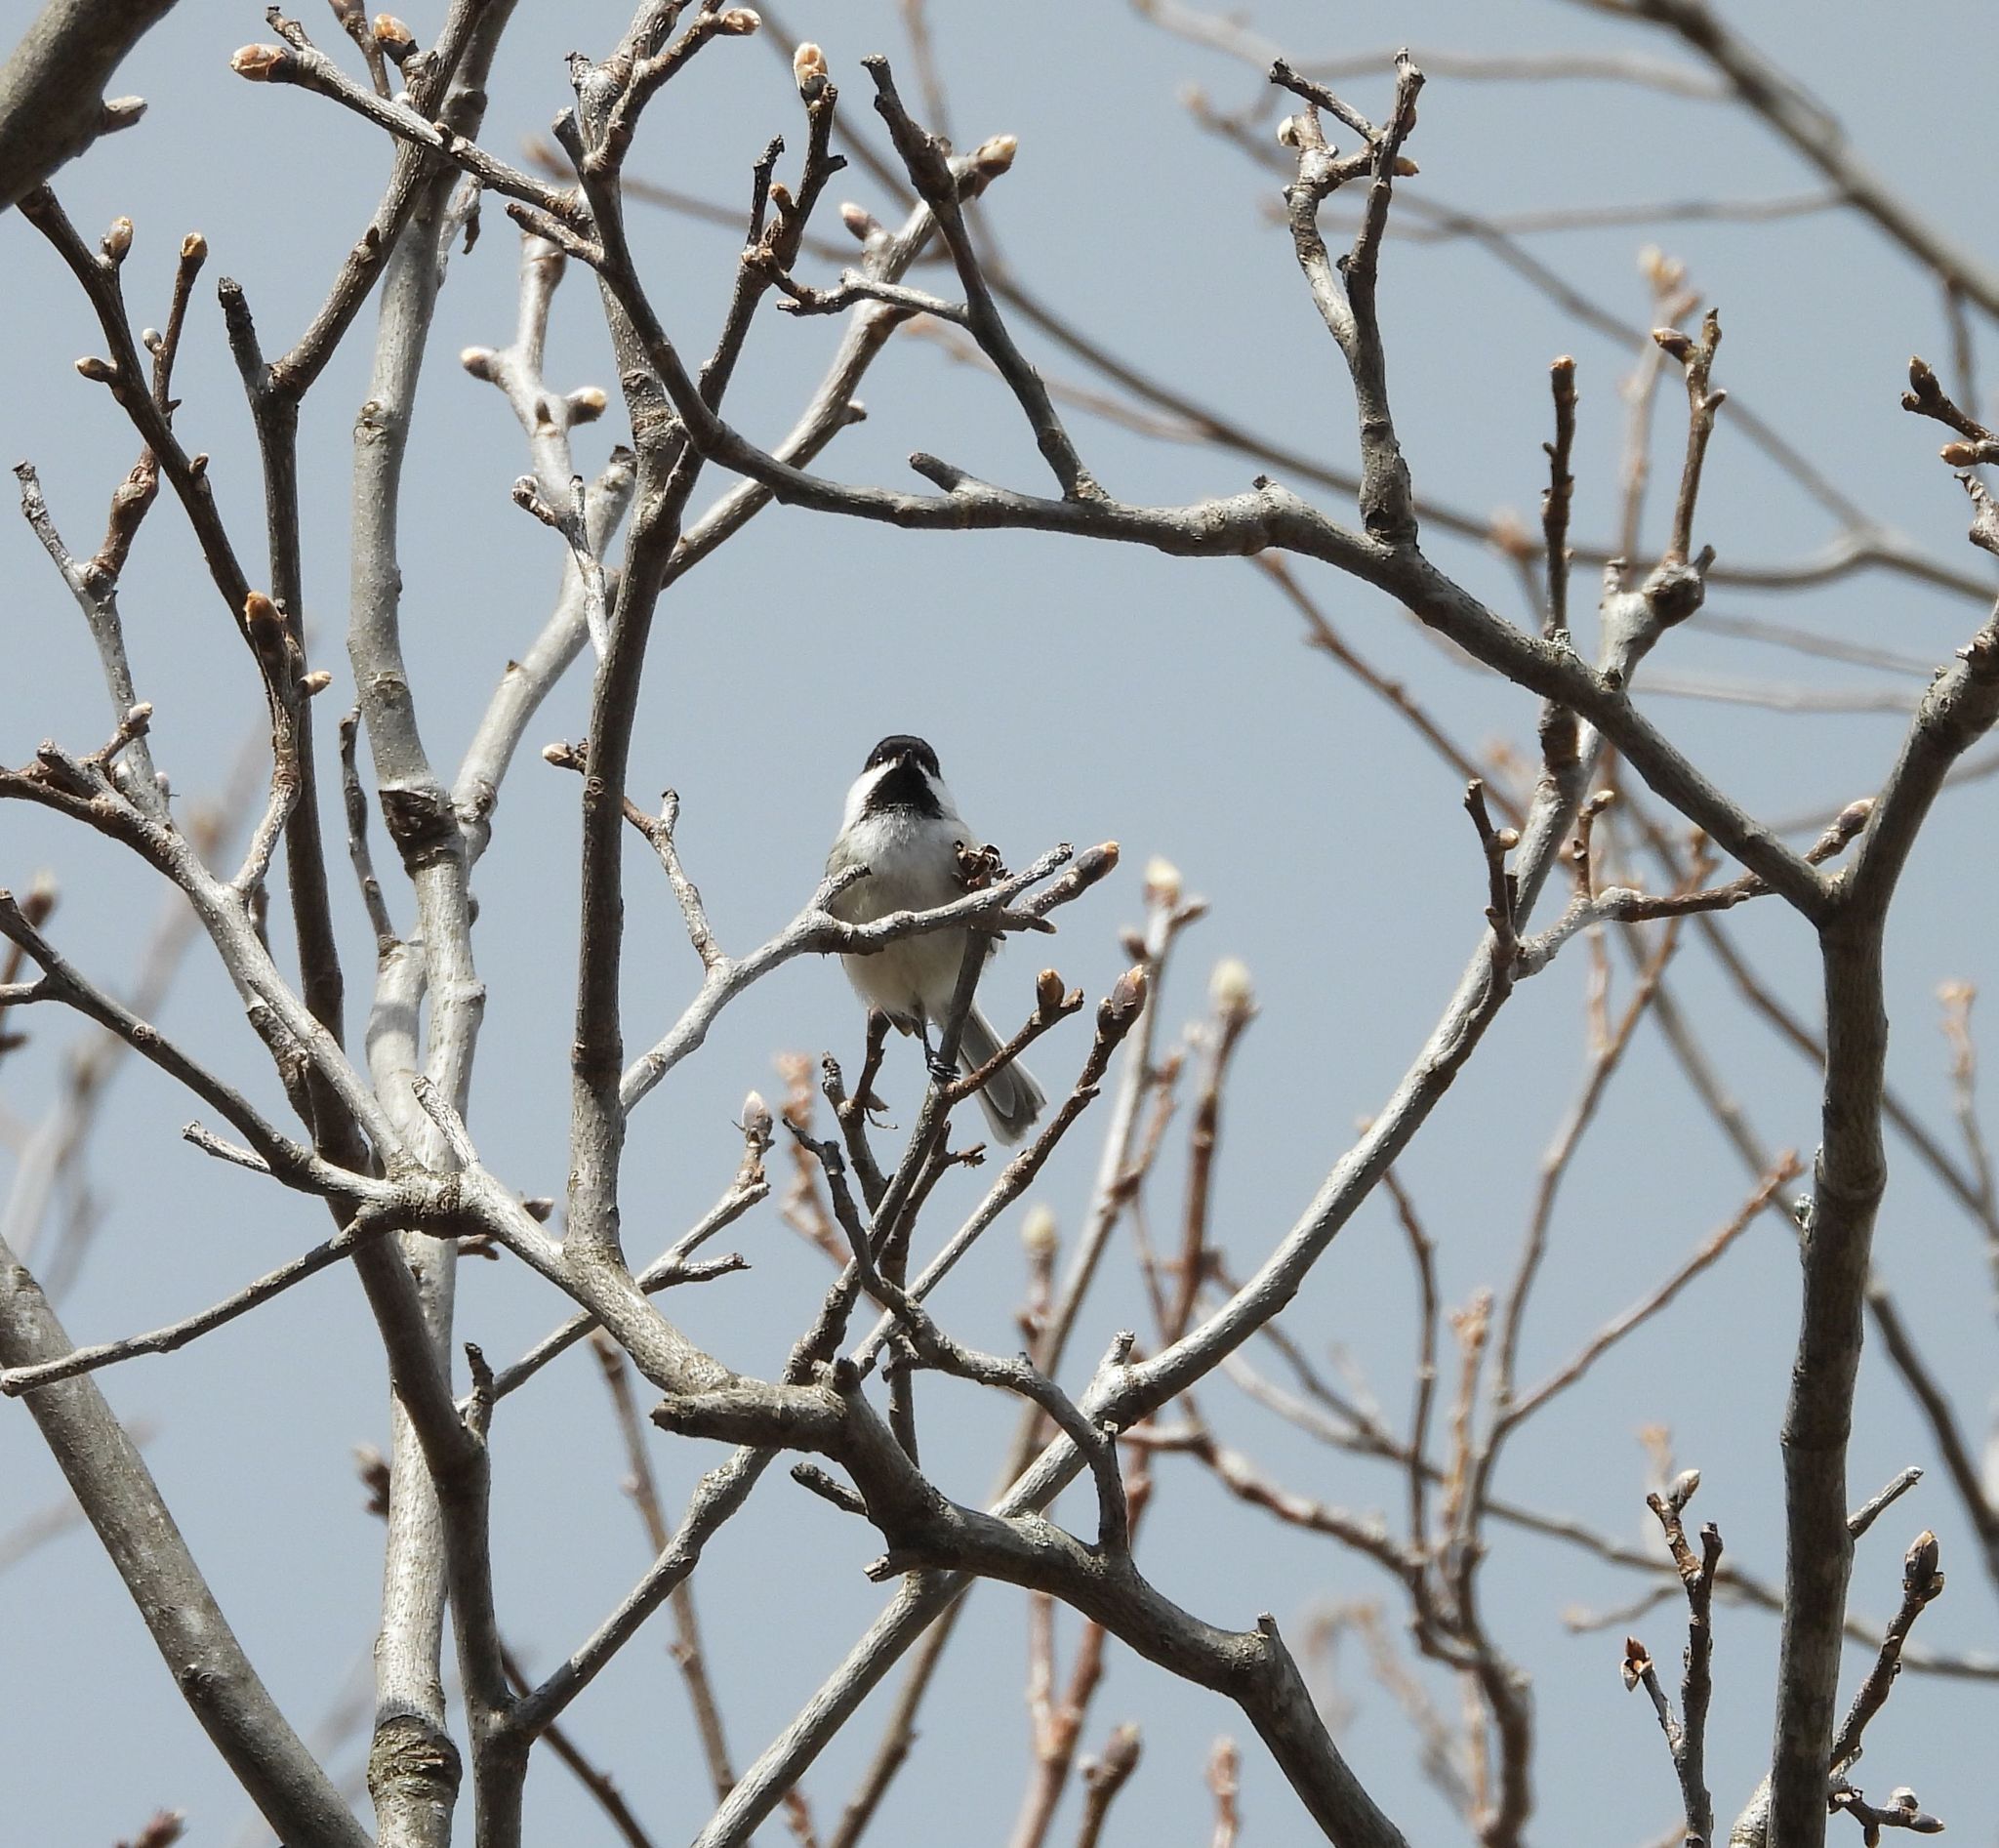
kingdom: Animalia
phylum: Chordata
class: Aves
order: Passeriformes
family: Paridae
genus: Poecile
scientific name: Poecile atricapillus
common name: Black-capped chickadee
